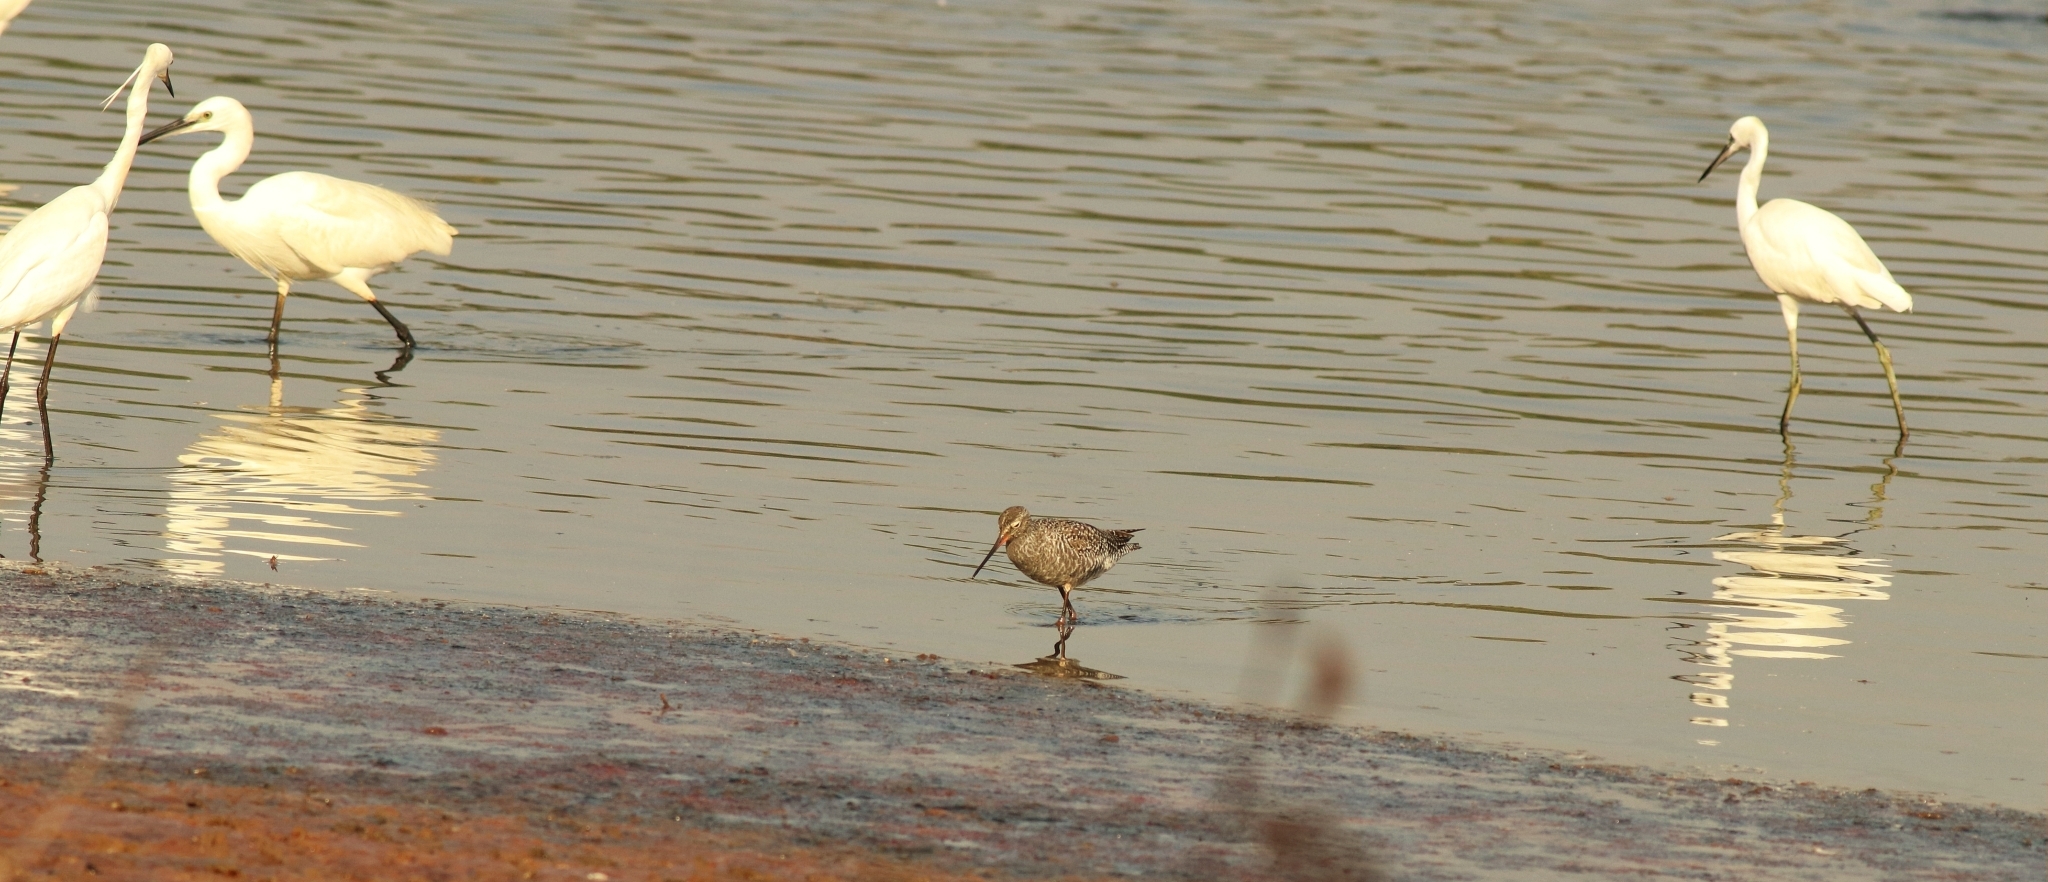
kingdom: Animalia
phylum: Chordata
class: Aves
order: Pelecaniformes
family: Ardeidae
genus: Egretta
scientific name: Egretta garzetta
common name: Little egret
